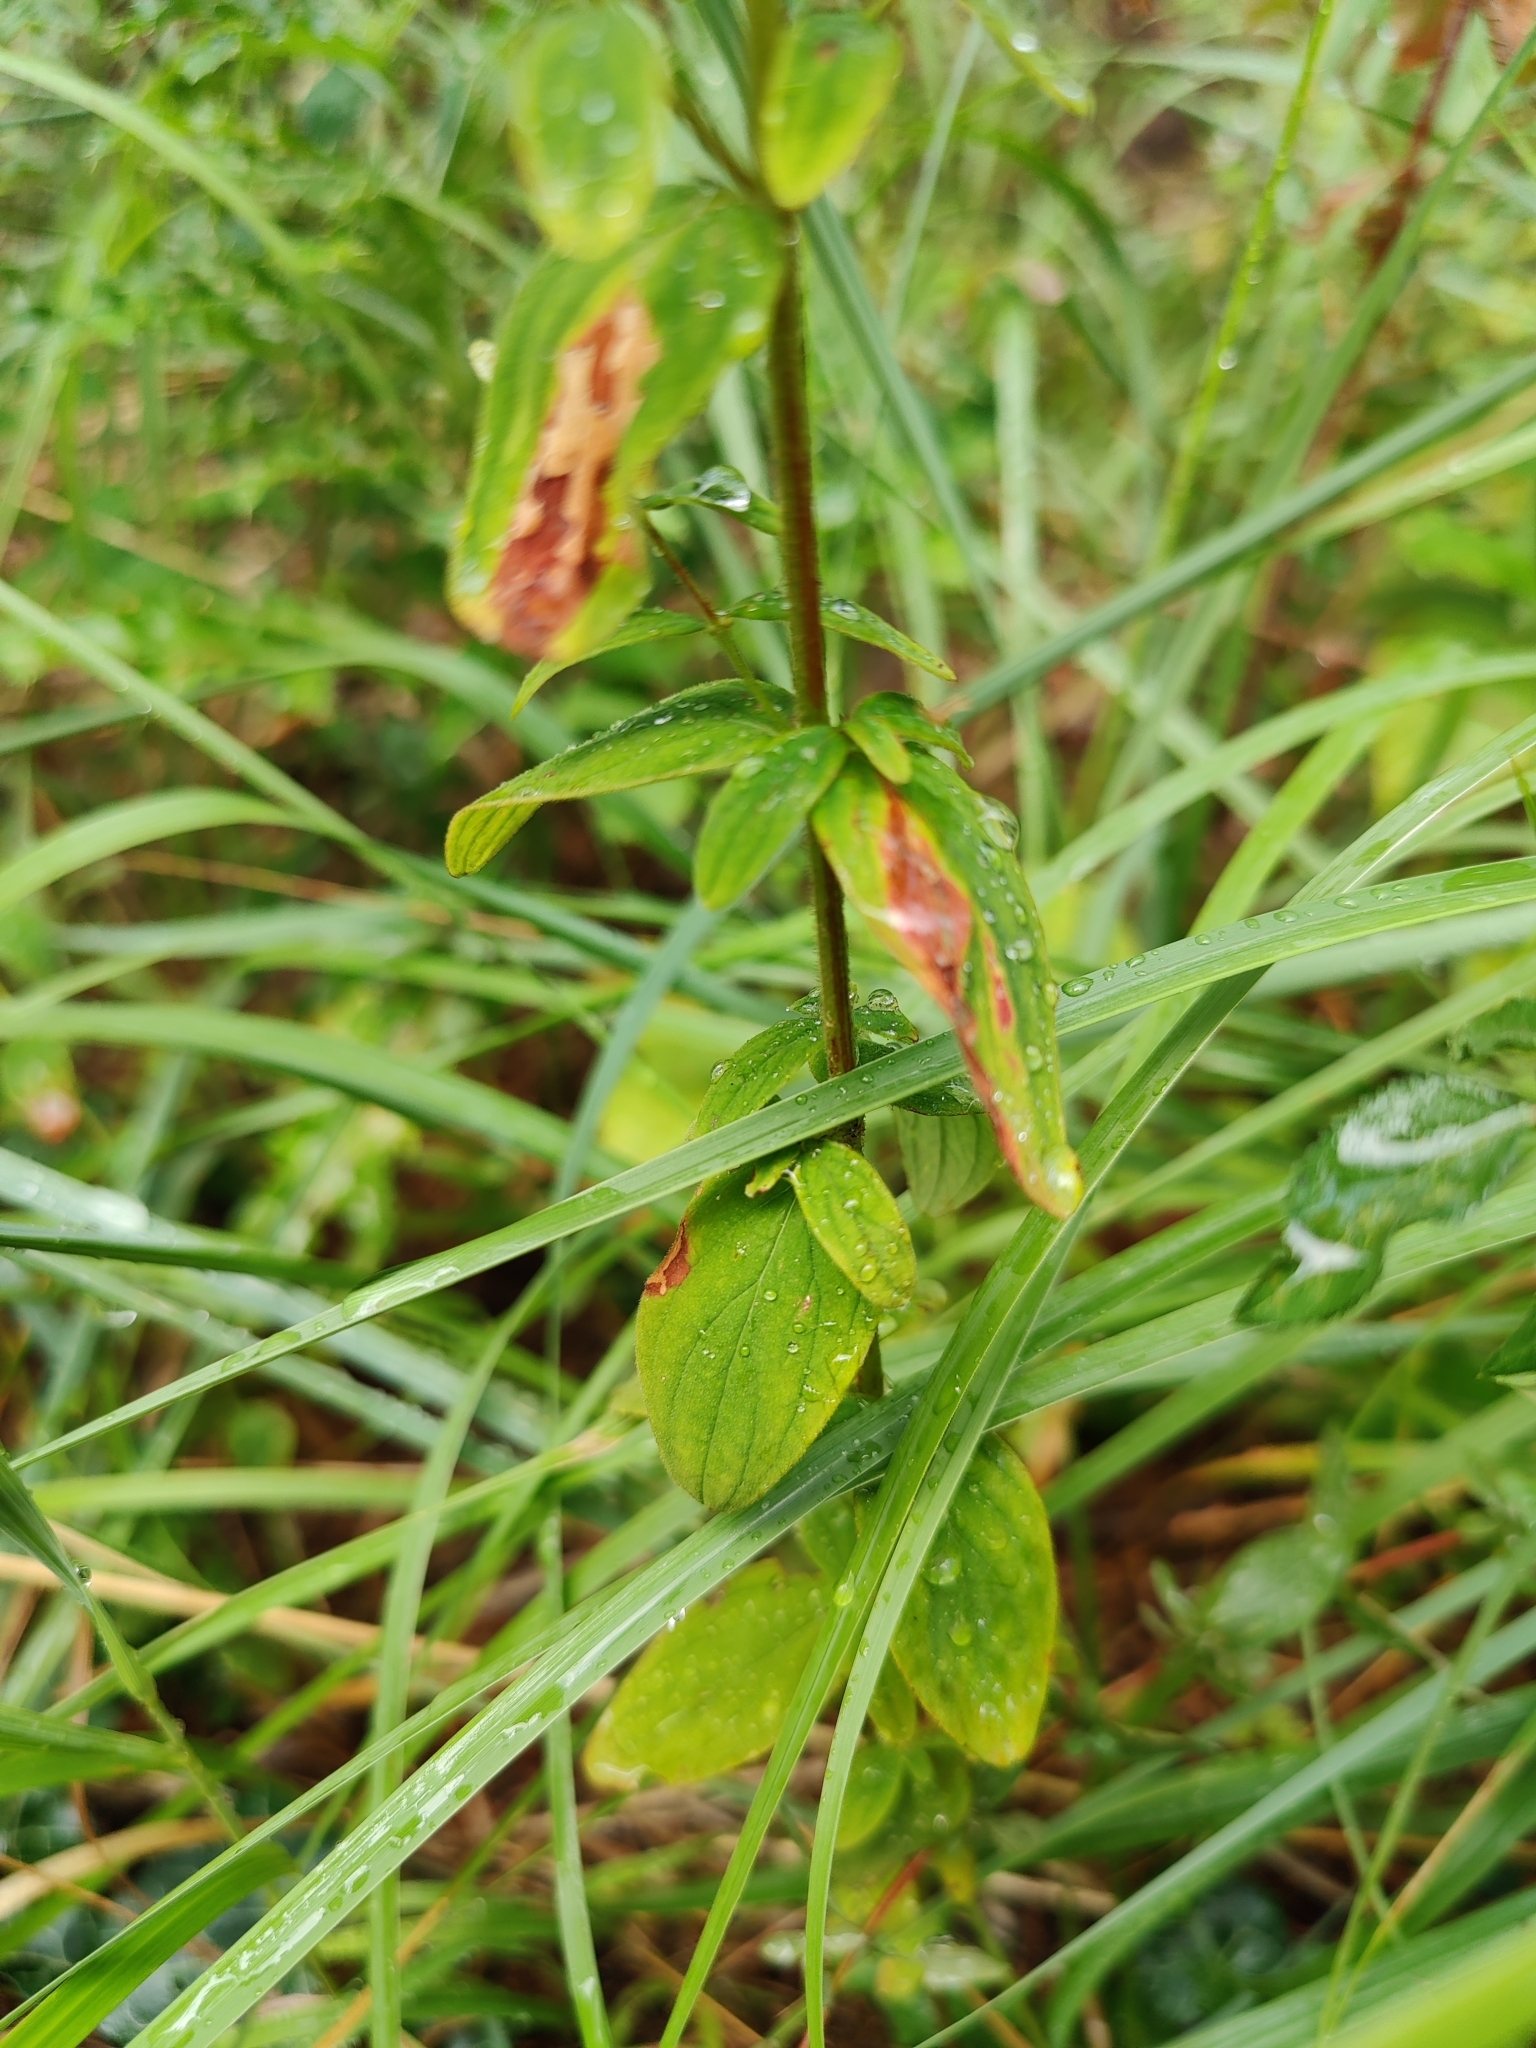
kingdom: Plantae
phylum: Tracheophyta
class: Magnoliopsida
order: Malpighiales
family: Hypericaceae
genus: Hypericum
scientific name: Hypericum hirsutum
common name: Hairy st. john's-wort
